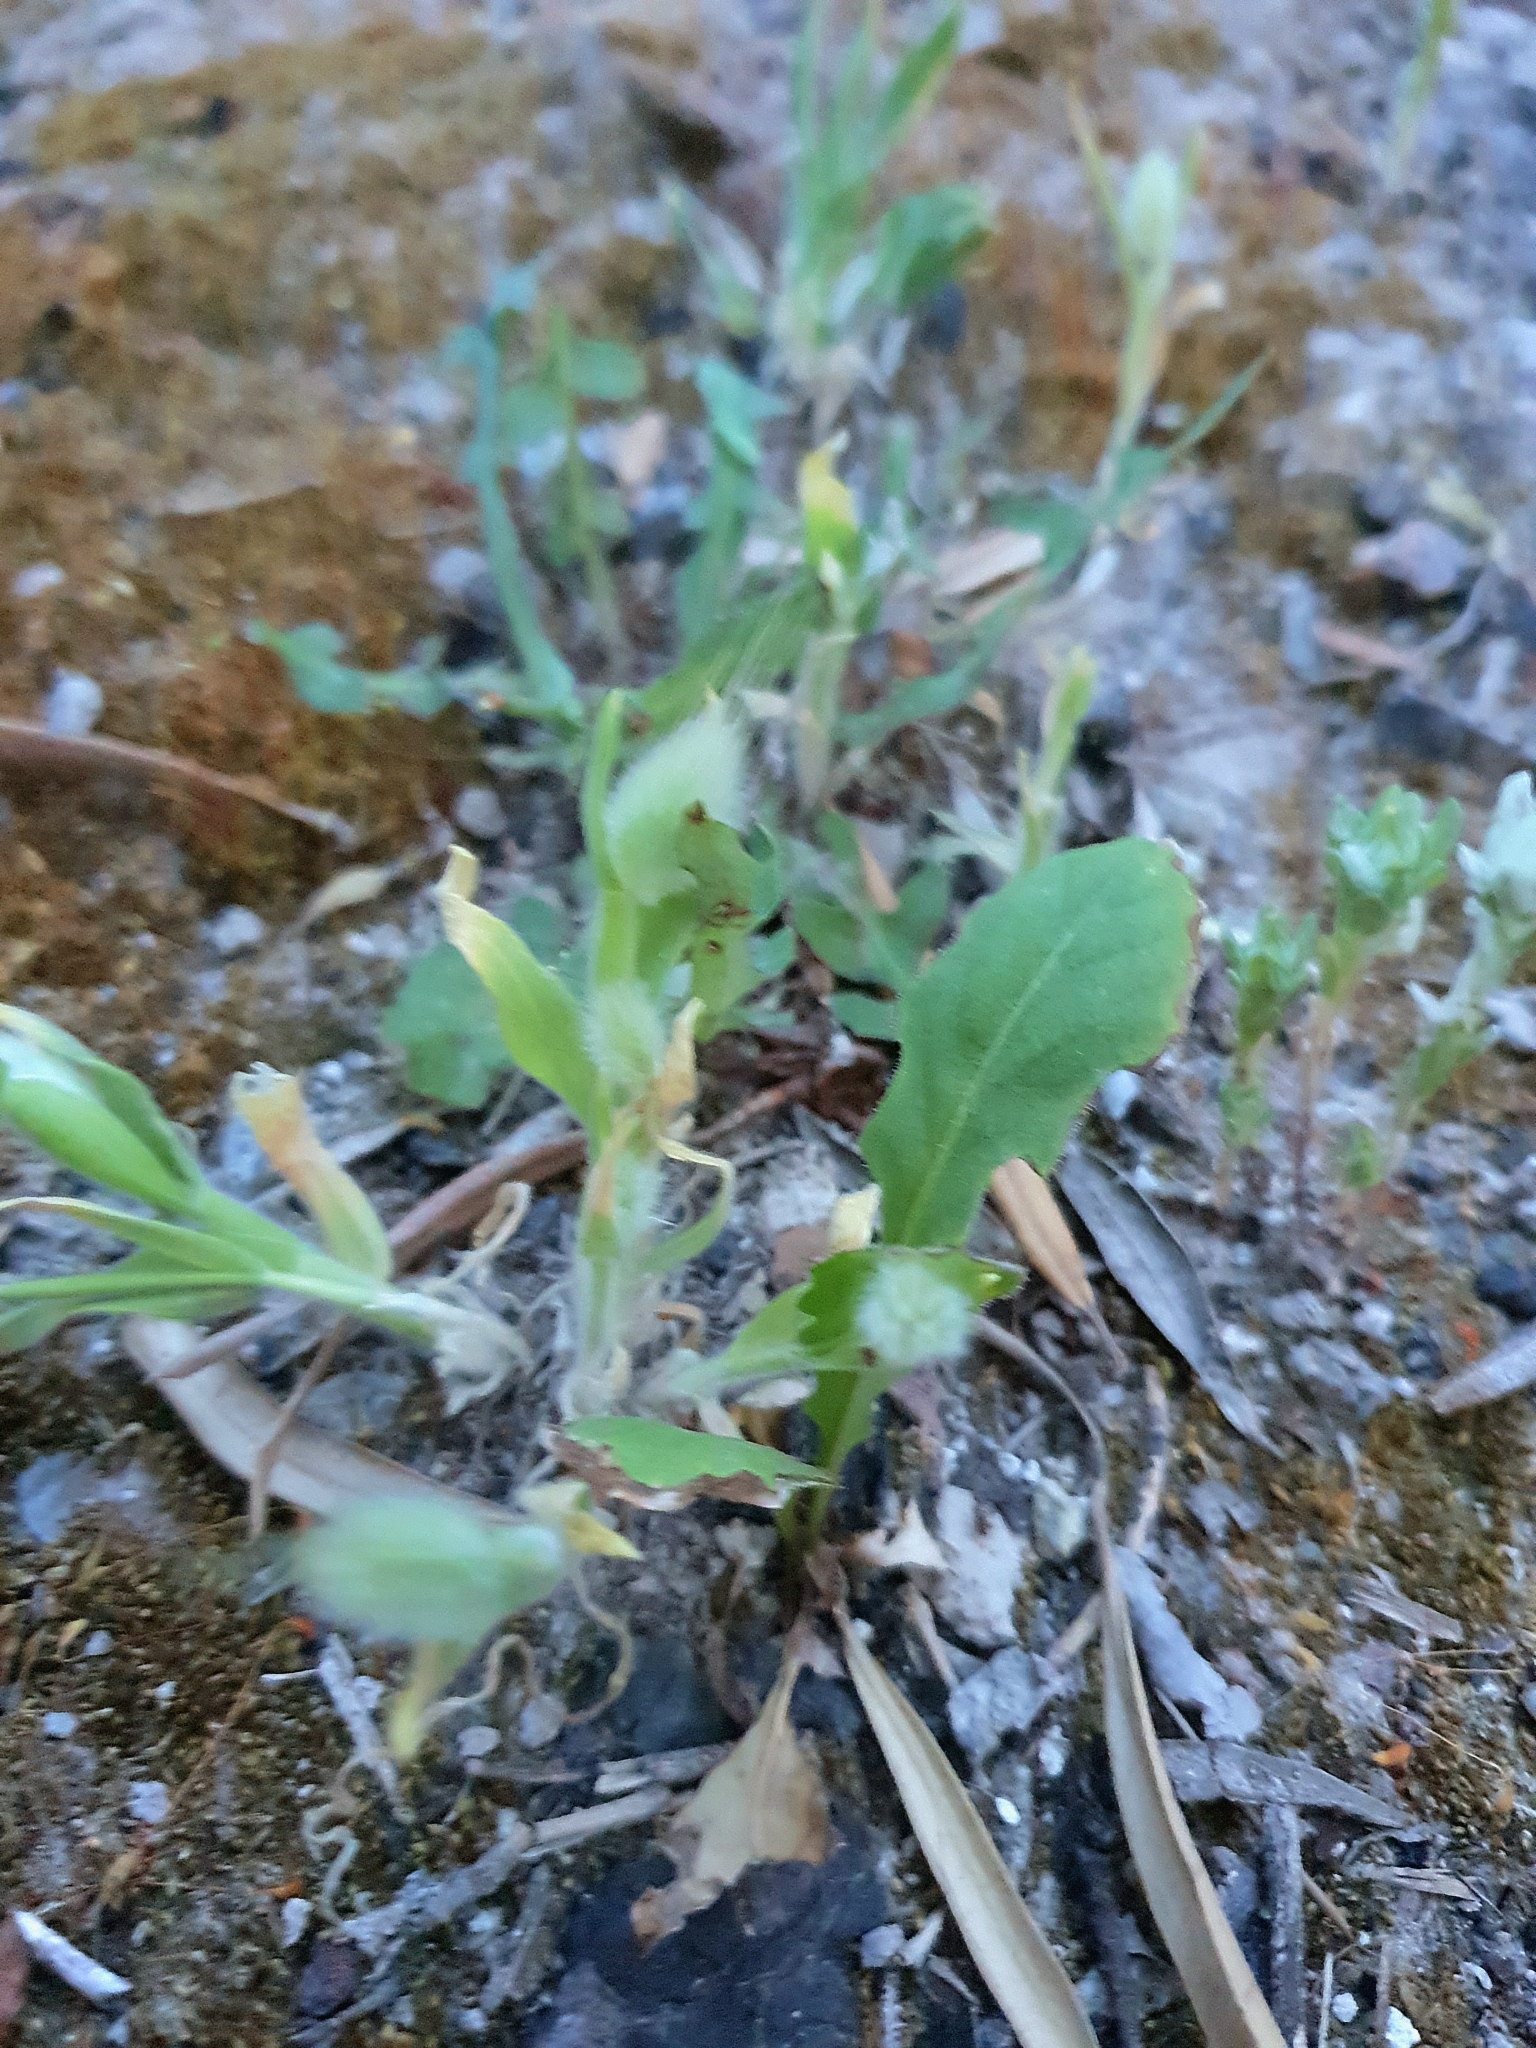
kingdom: Plantae
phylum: Tracheophyta
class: Liliopsida
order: Poales
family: Poaceae
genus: Lagurus
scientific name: Lagurus ovatus
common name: Hare's-tail
